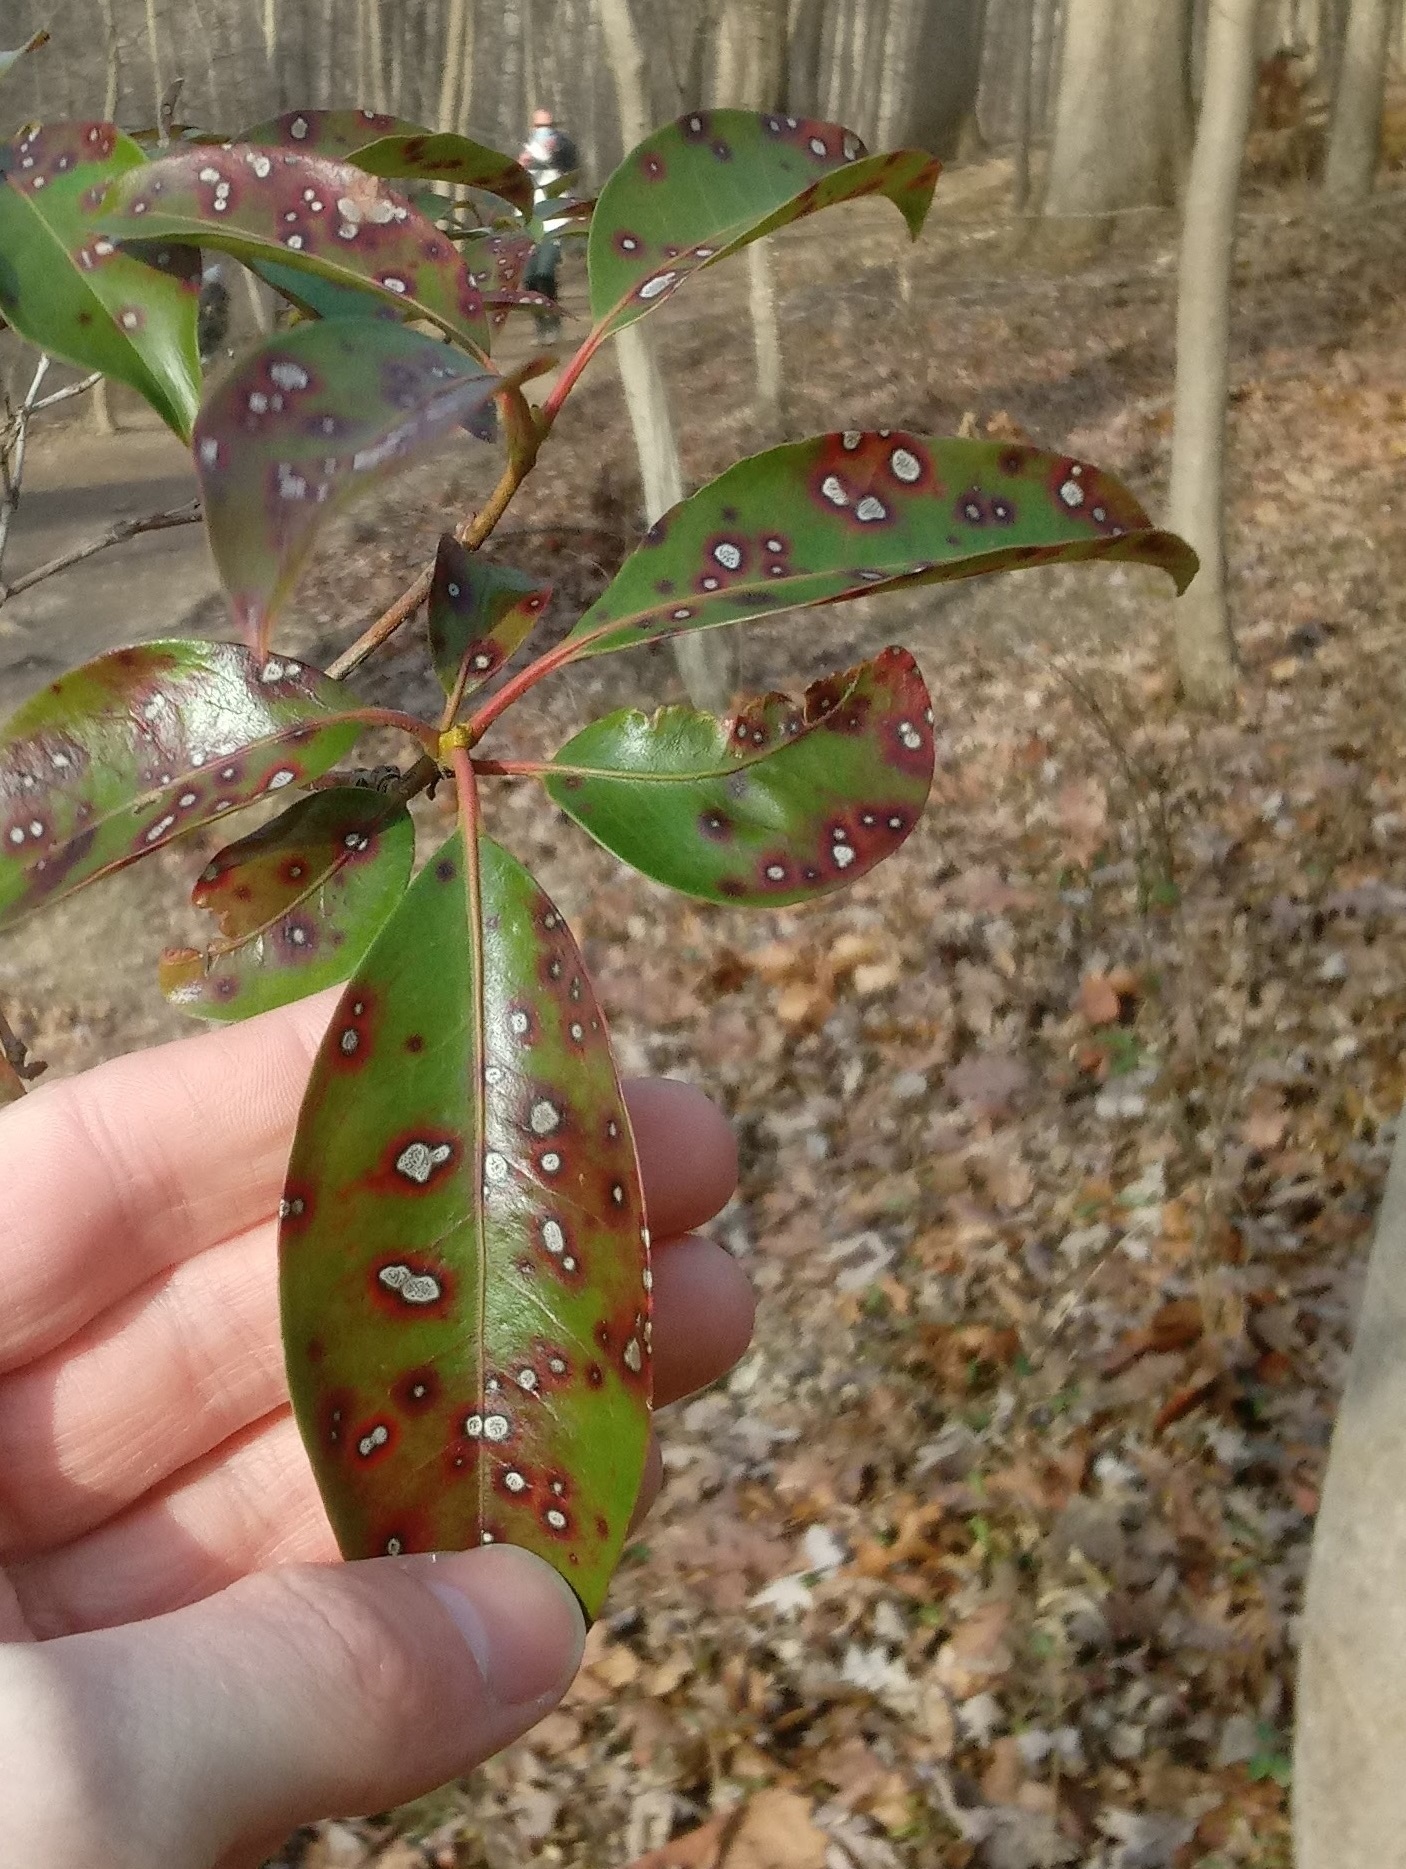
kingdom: Fungi
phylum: Ascomycota
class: Dothideomycetes
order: Mycosphaerellales
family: Mycosphaerellaceae
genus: Mycosphaerella
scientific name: Mycosphaerella colorata
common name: Mountain laurel leaf spot
